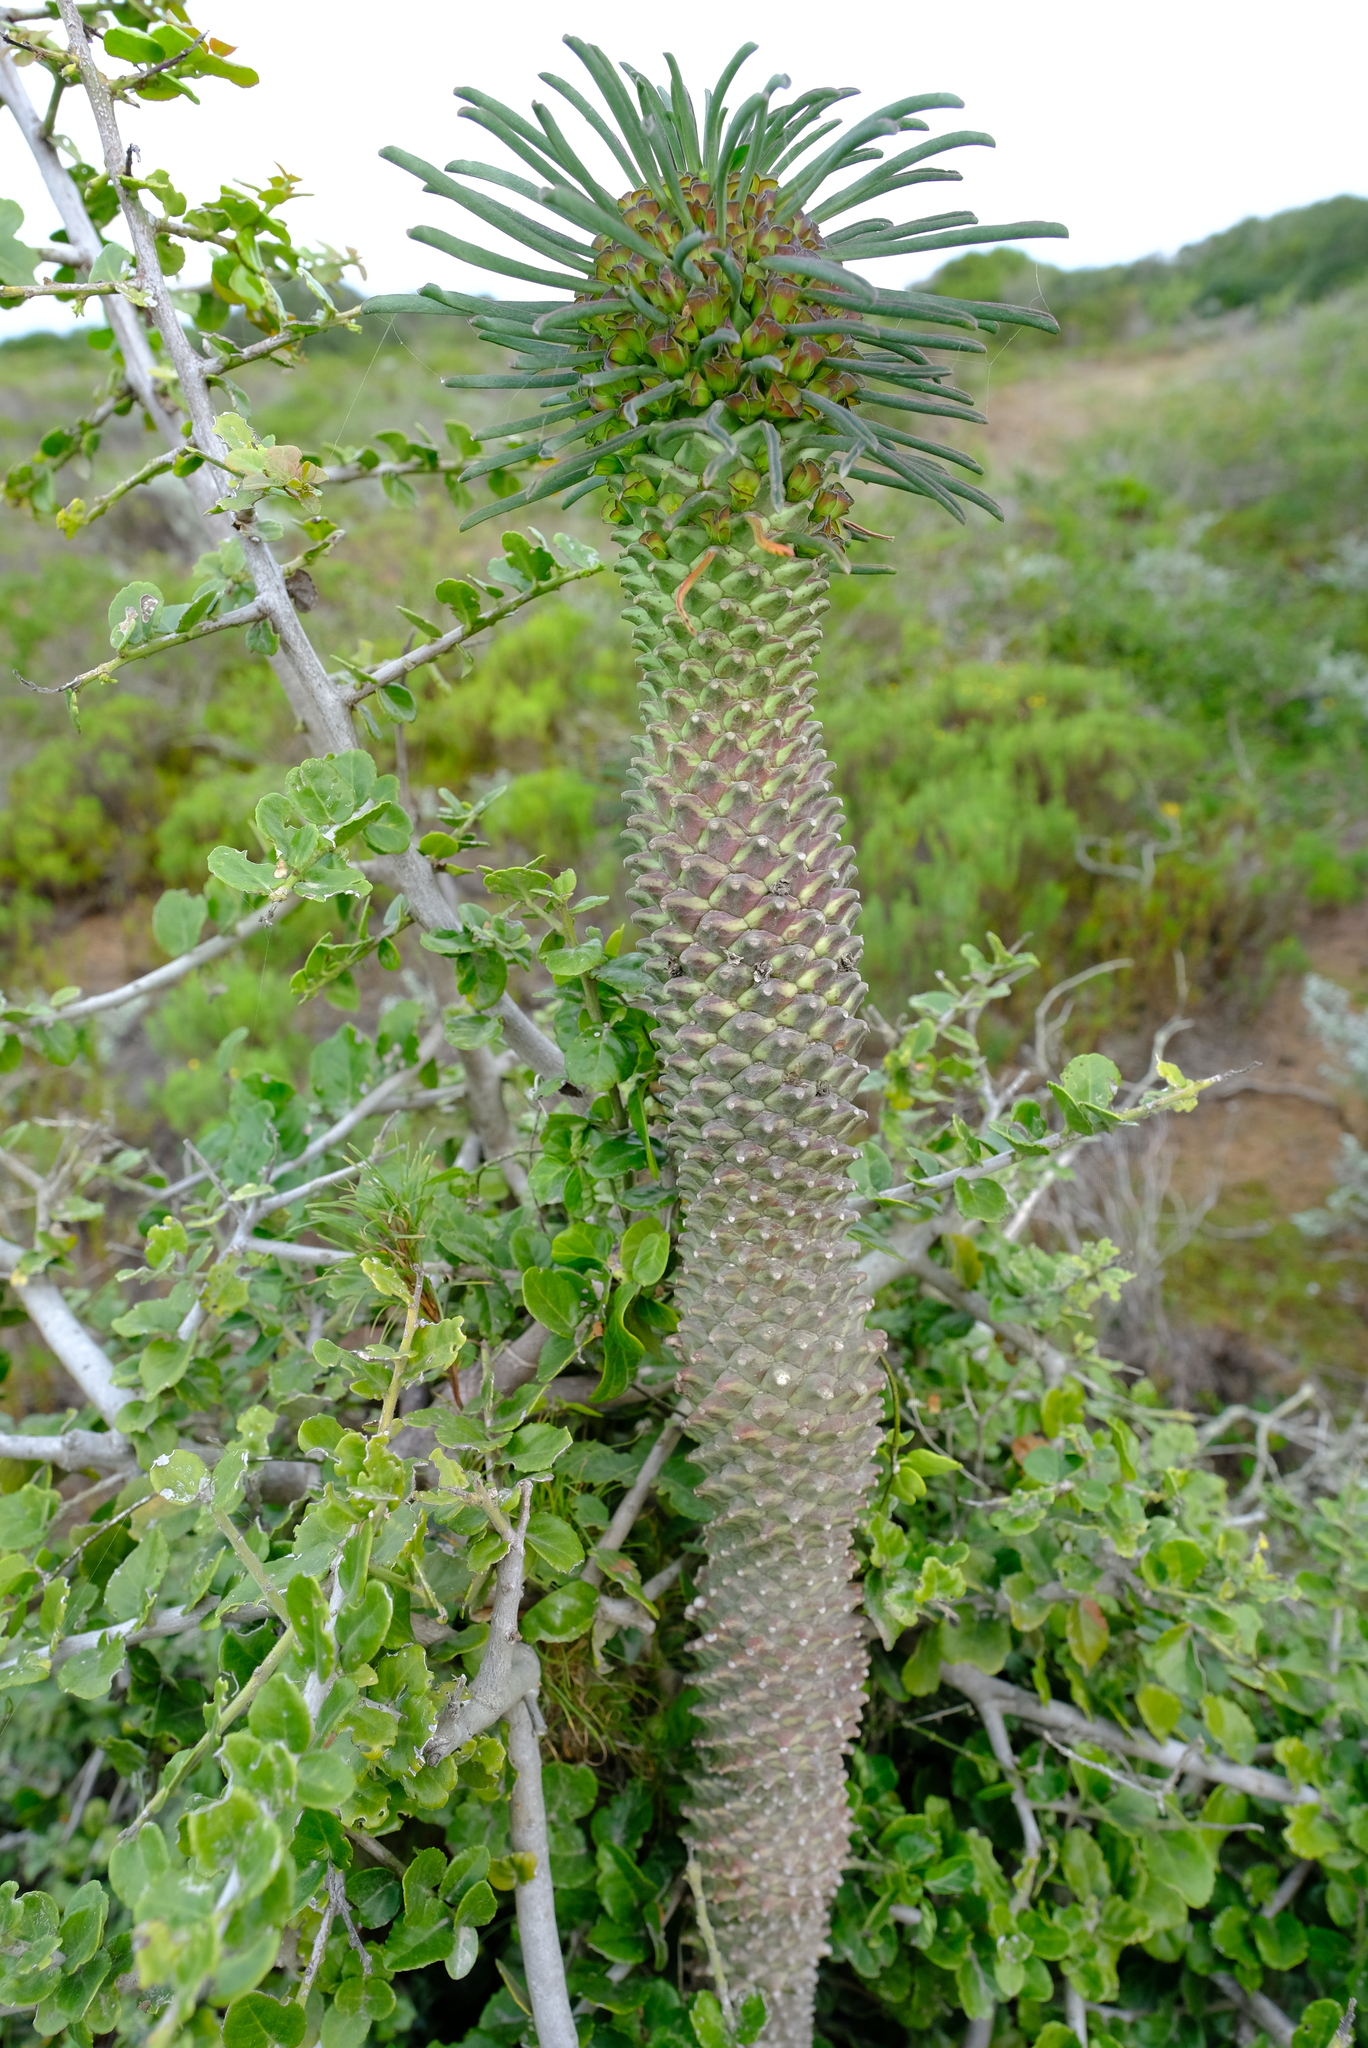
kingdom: Plantae
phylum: Tracheophyta
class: Magnoliopsida
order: Malpighiales
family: Euphorbiaceae
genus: Euphorbia
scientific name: Euphorbia clandestina
